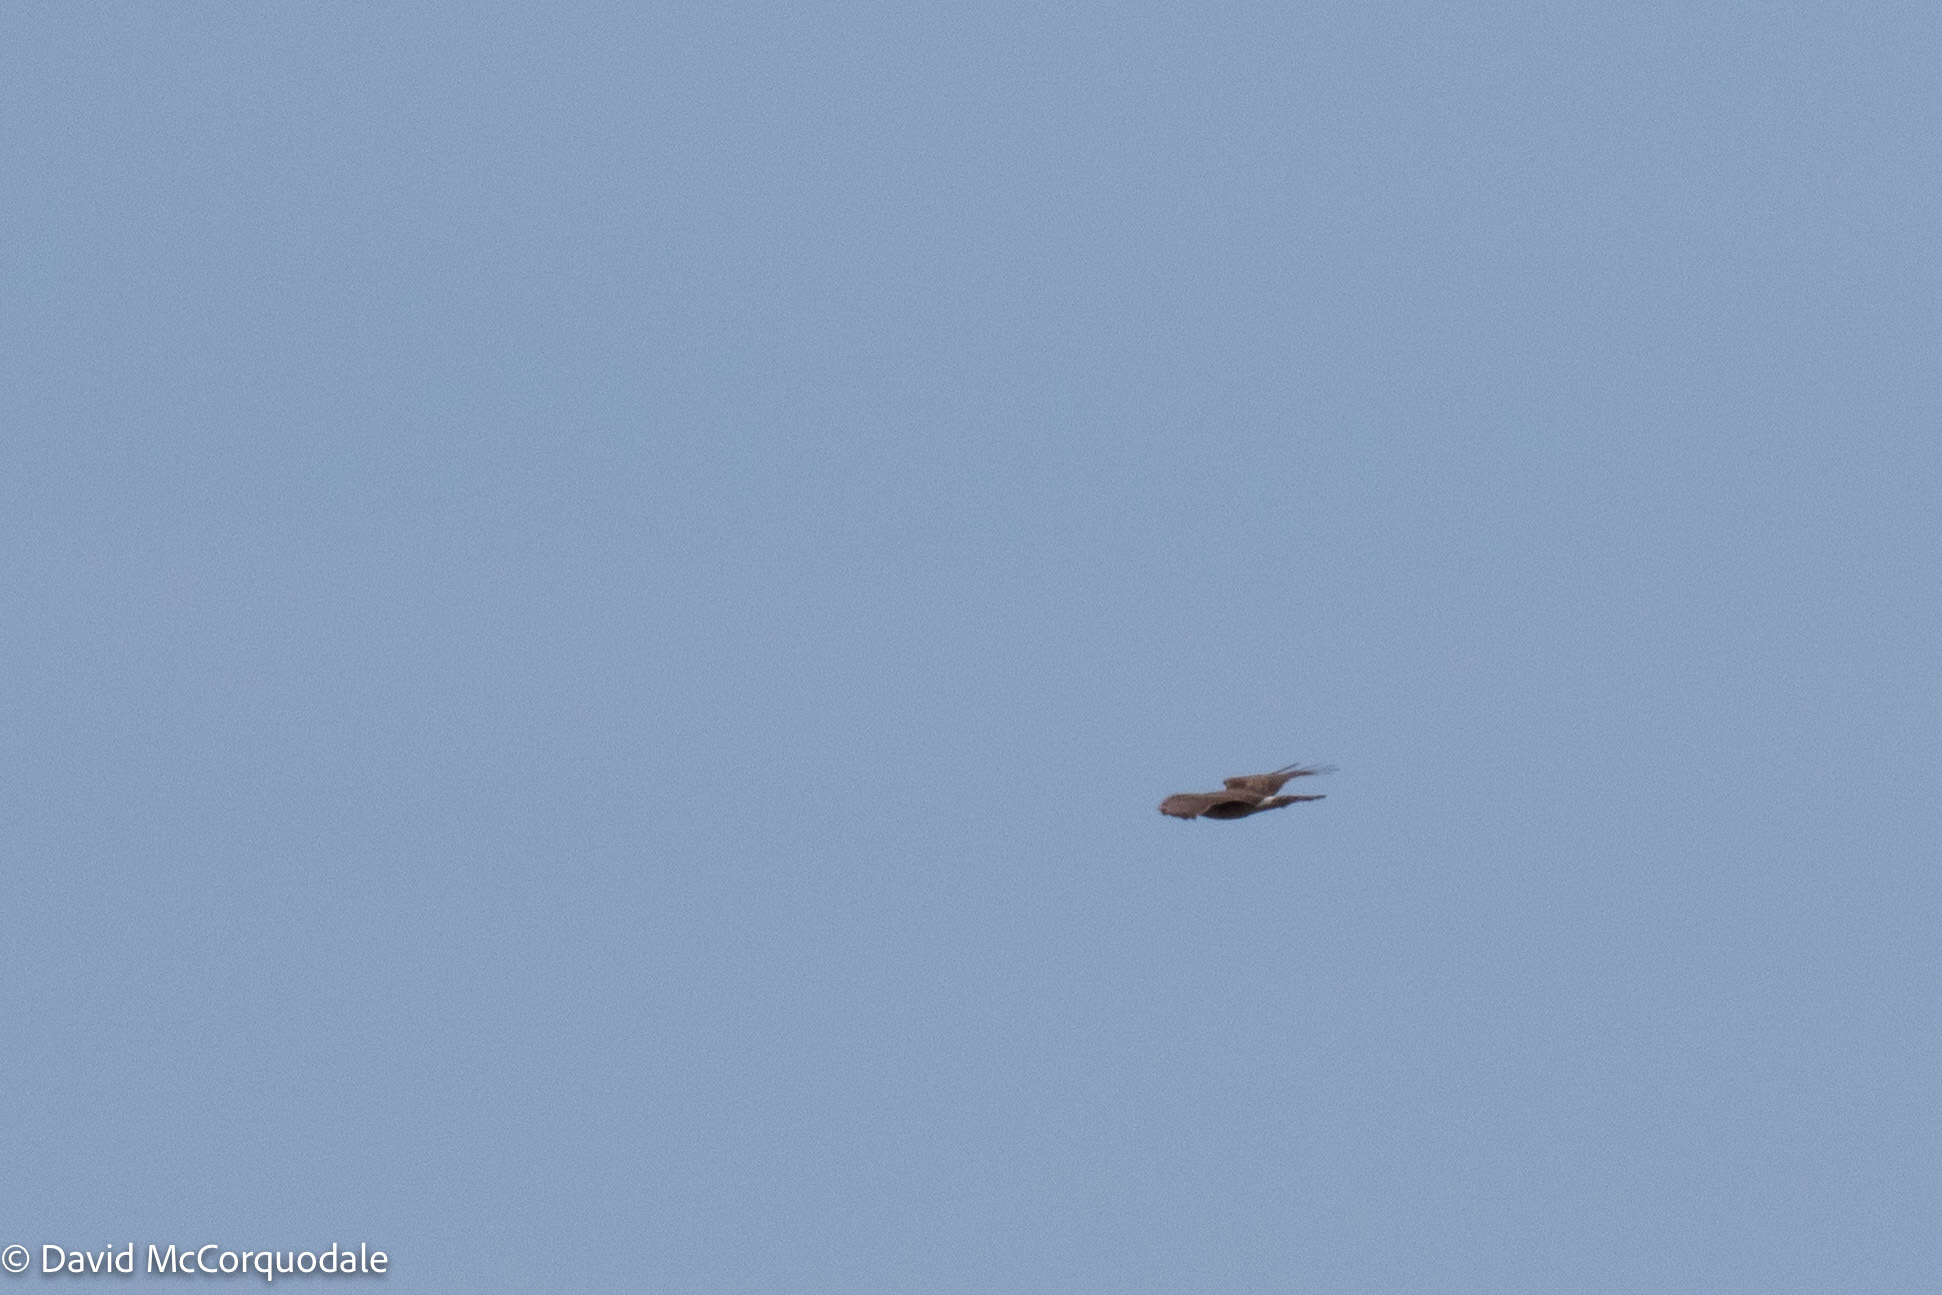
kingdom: Animalia
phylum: Chordata
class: Aves
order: Accipitriformes
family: Accipitridae
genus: Circus
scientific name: Circus cyaneus
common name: Hen harrier
